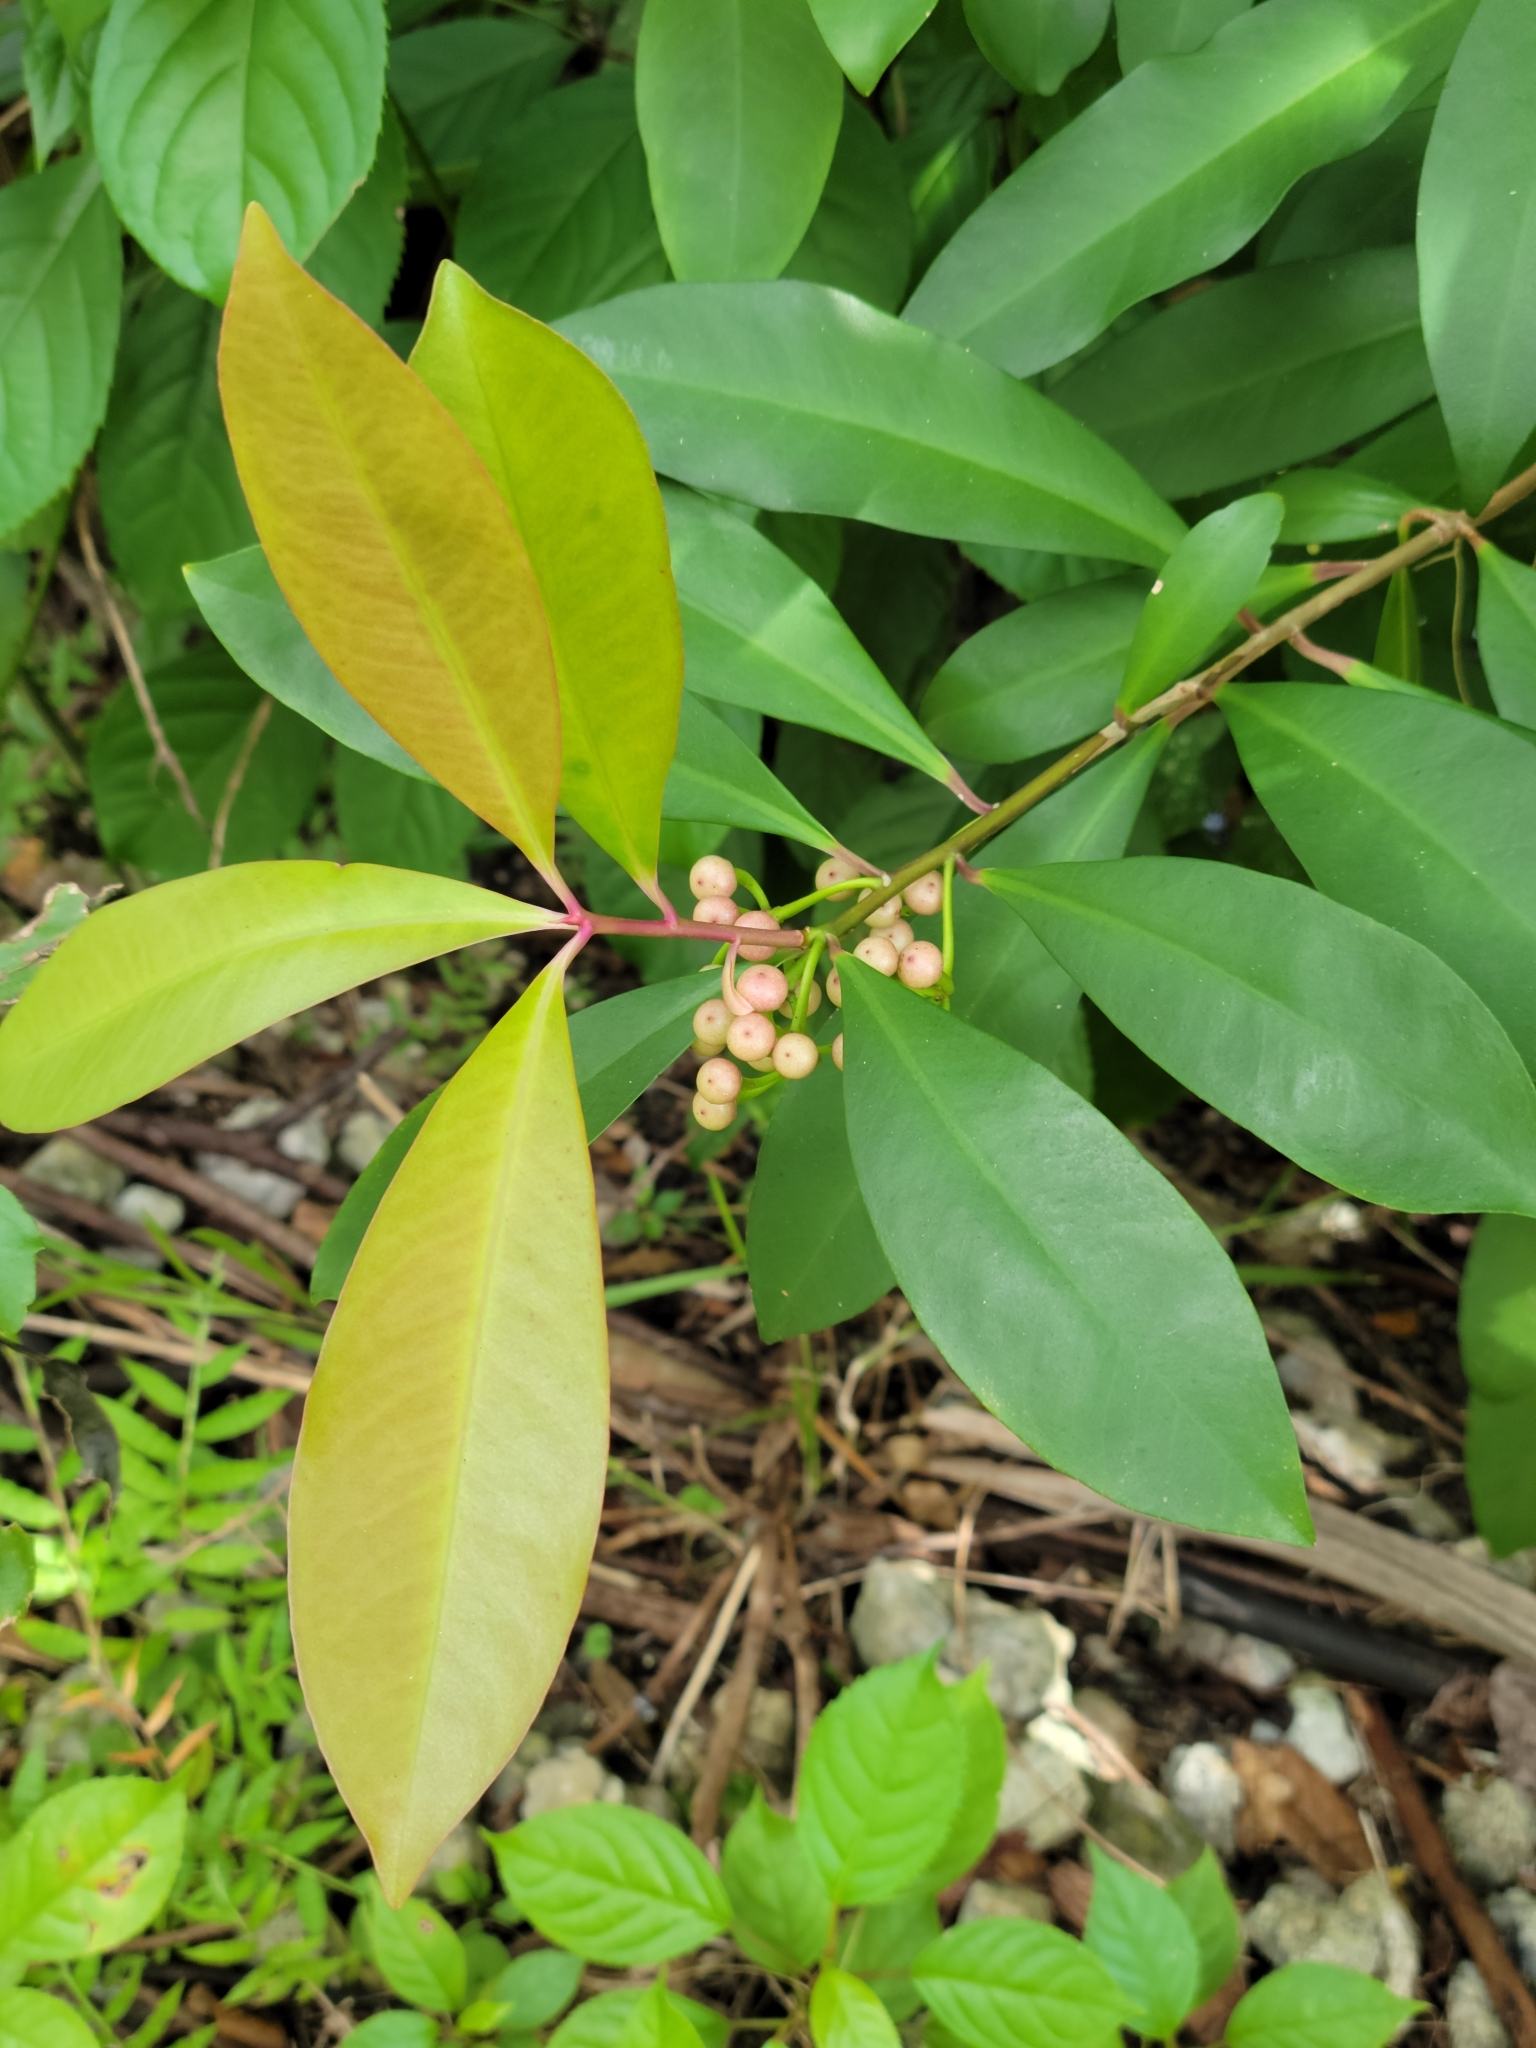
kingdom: Plantae
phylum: Tracheophyta
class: Magnoliopsida
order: Ericales
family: Primulaceae
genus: Ardisia
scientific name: Ardisia elliptica
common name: Shoebutton
